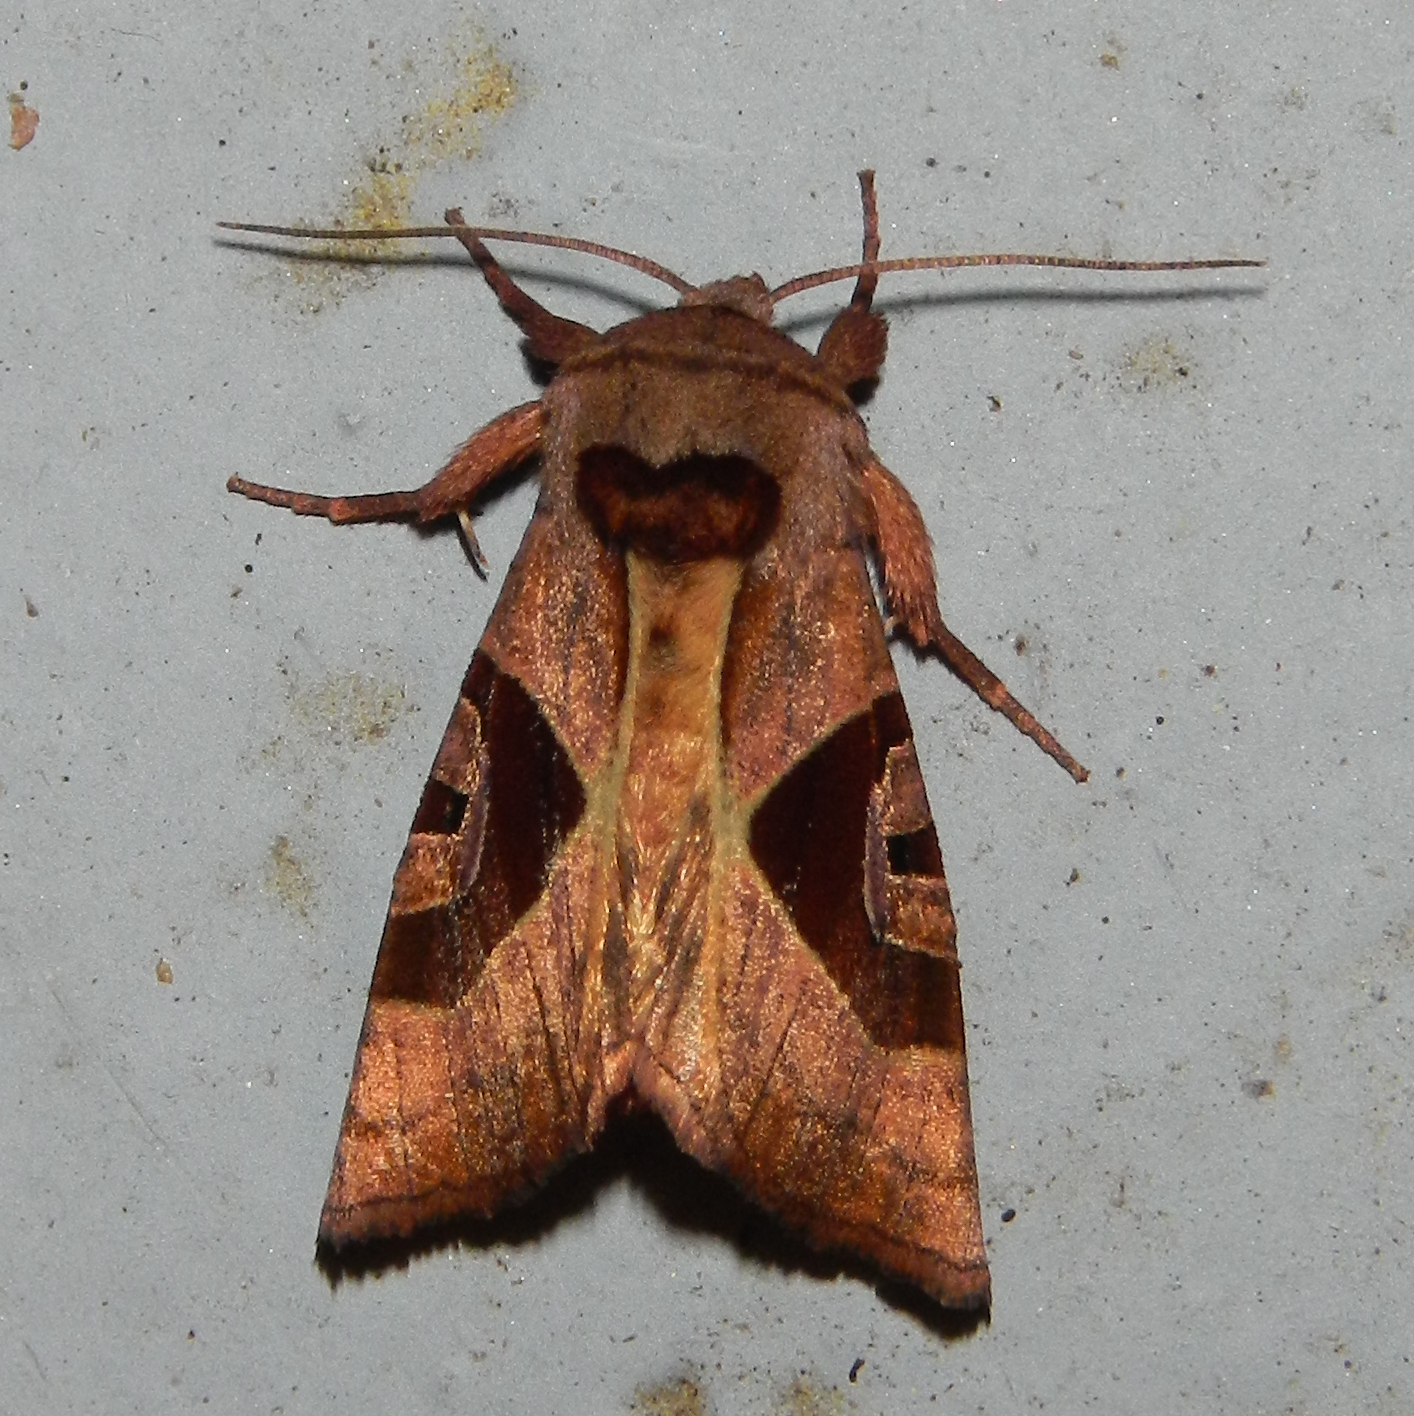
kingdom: Animalia
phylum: Arthropoda
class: Insecta
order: Lepidoptera
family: Noctuidae
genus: Conservula
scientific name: Conservula anodonta
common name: Sharp angle shades
